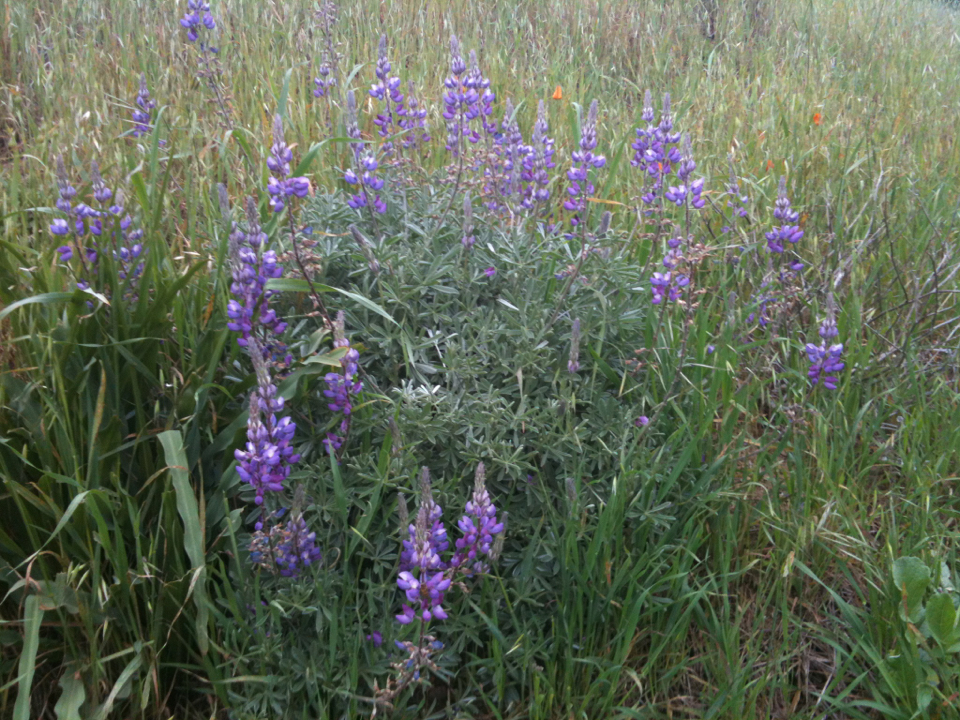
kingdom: Plantae
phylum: Tracheophyta
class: Magnoliopsida
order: Fabales
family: Fabaceae
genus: Lupinus
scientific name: Lupinus albifrons
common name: Foothill lupine
